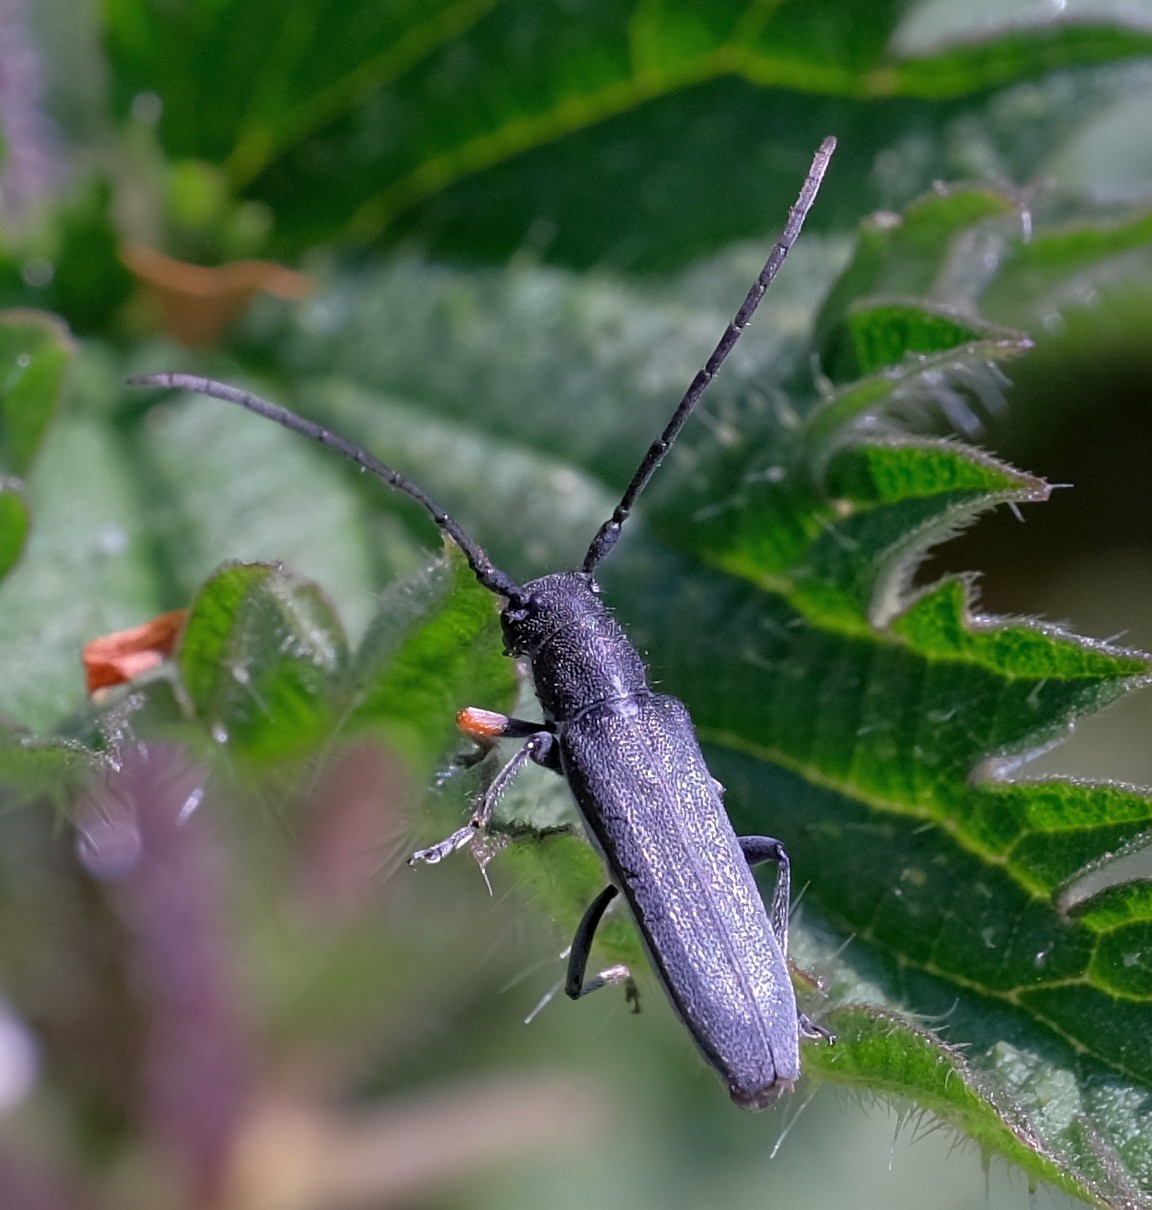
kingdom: Animalia
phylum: Arthropoda
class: Insecta
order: Coleoptera
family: Cerambycidae
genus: Phytoecia
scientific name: Phytoecia cylindrica
